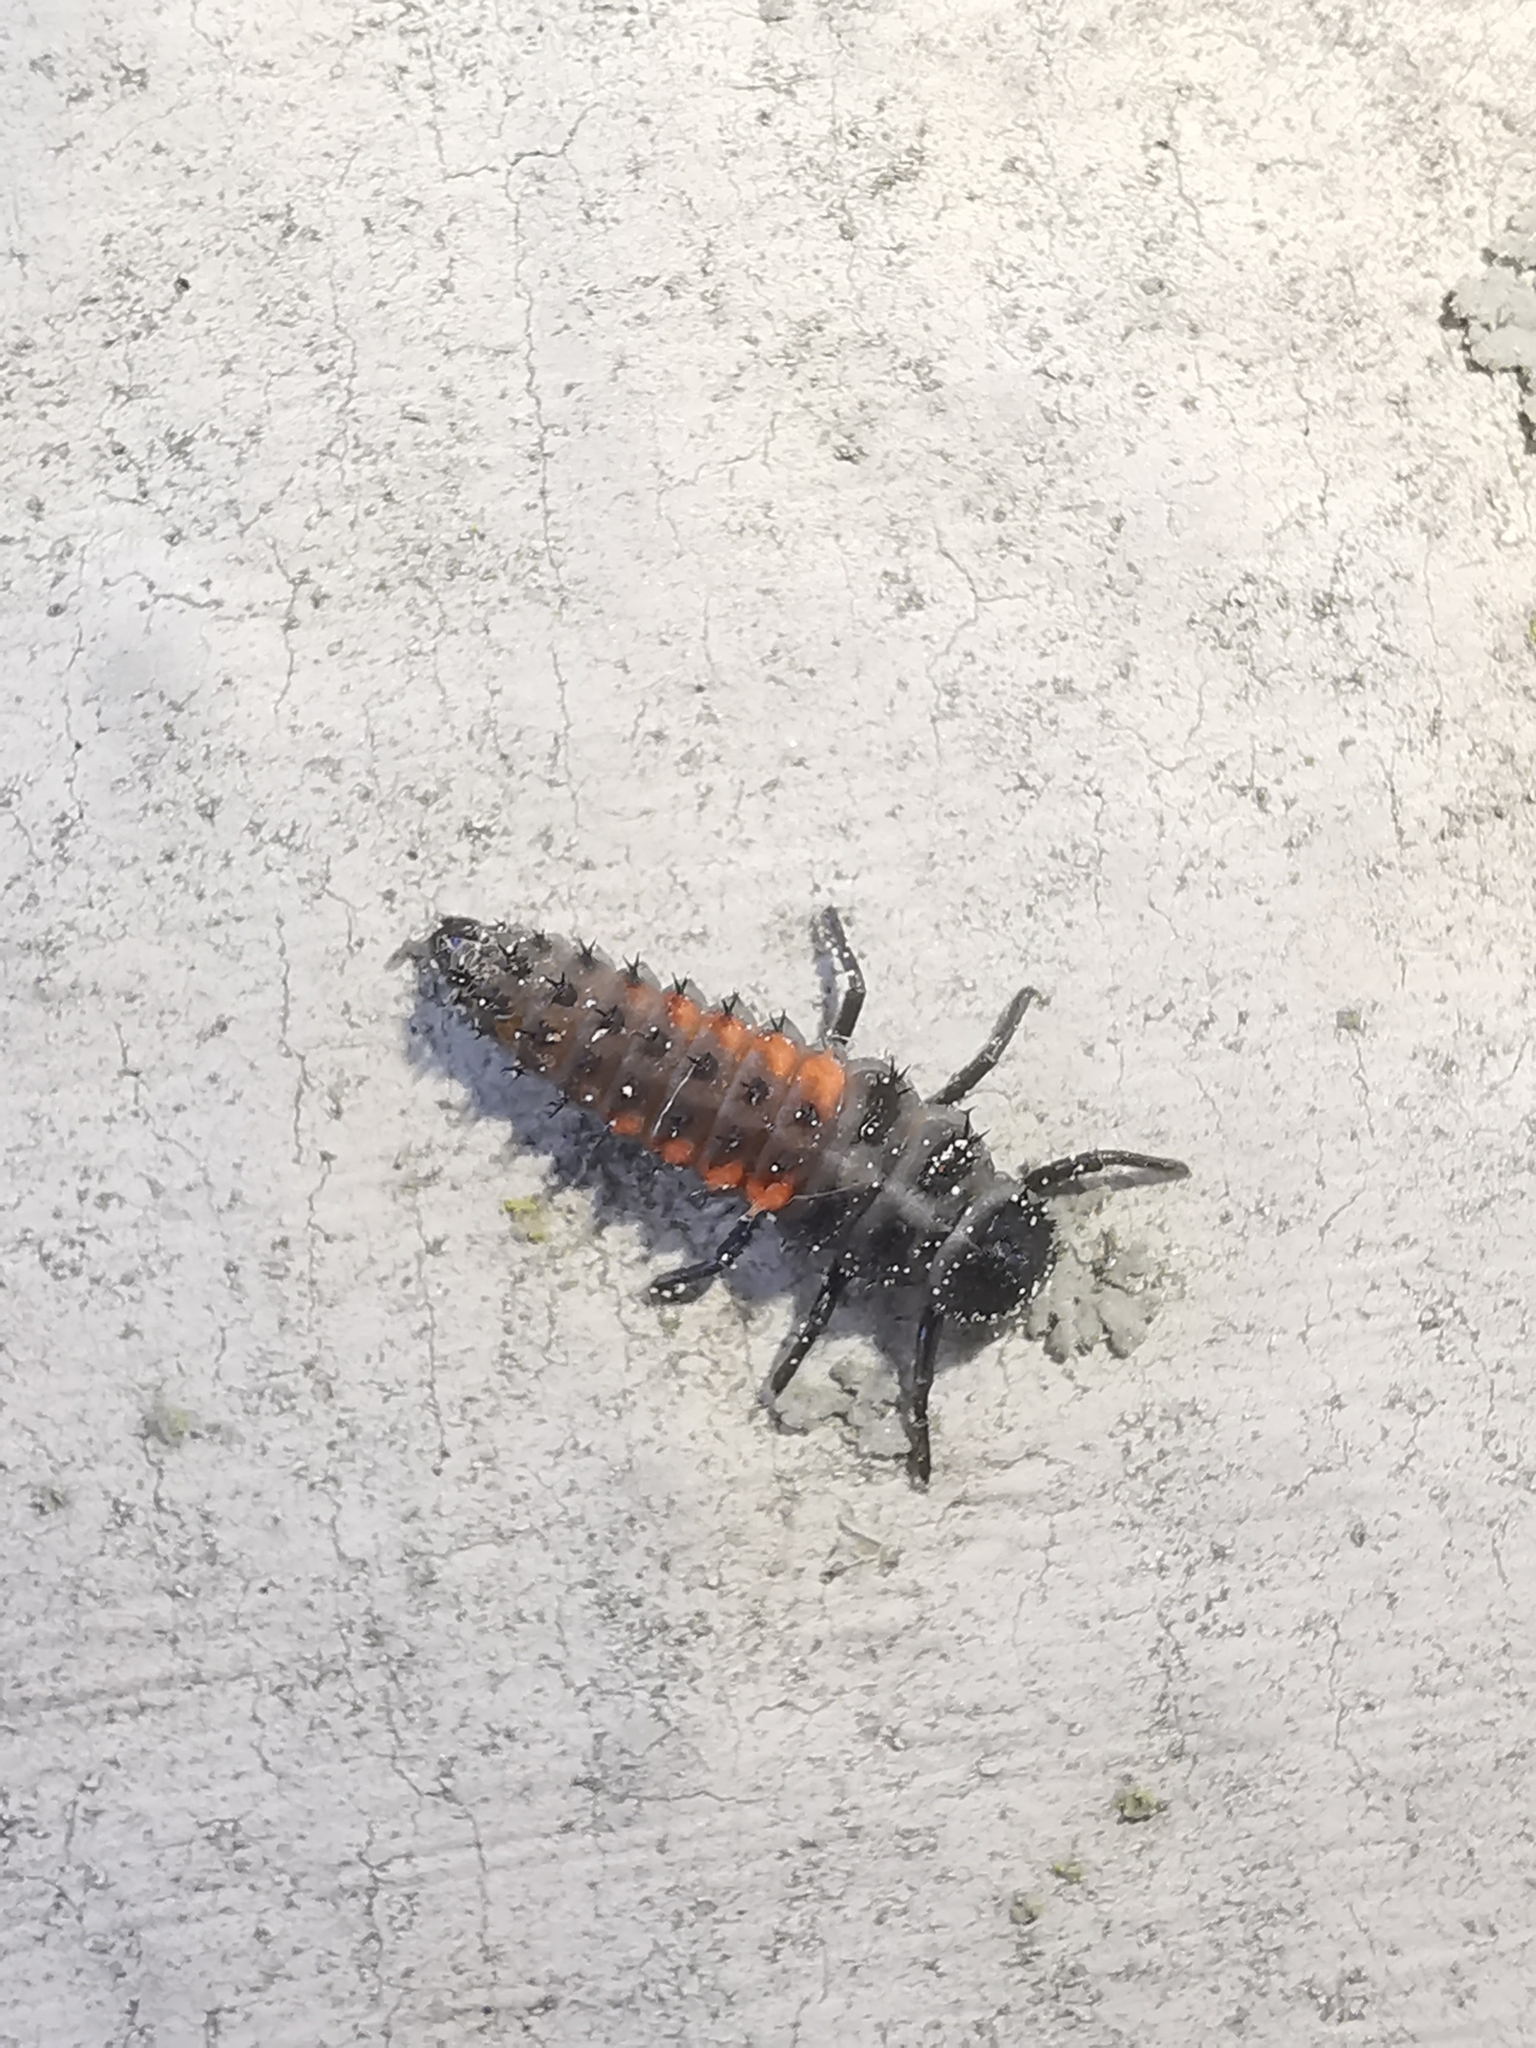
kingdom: Animalia
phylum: Arthropoda
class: Insecta
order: Coleoptera
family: Coccinellidae
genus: Harmonia
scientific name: Harmonia axyridis
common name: Harlequin ladybird
